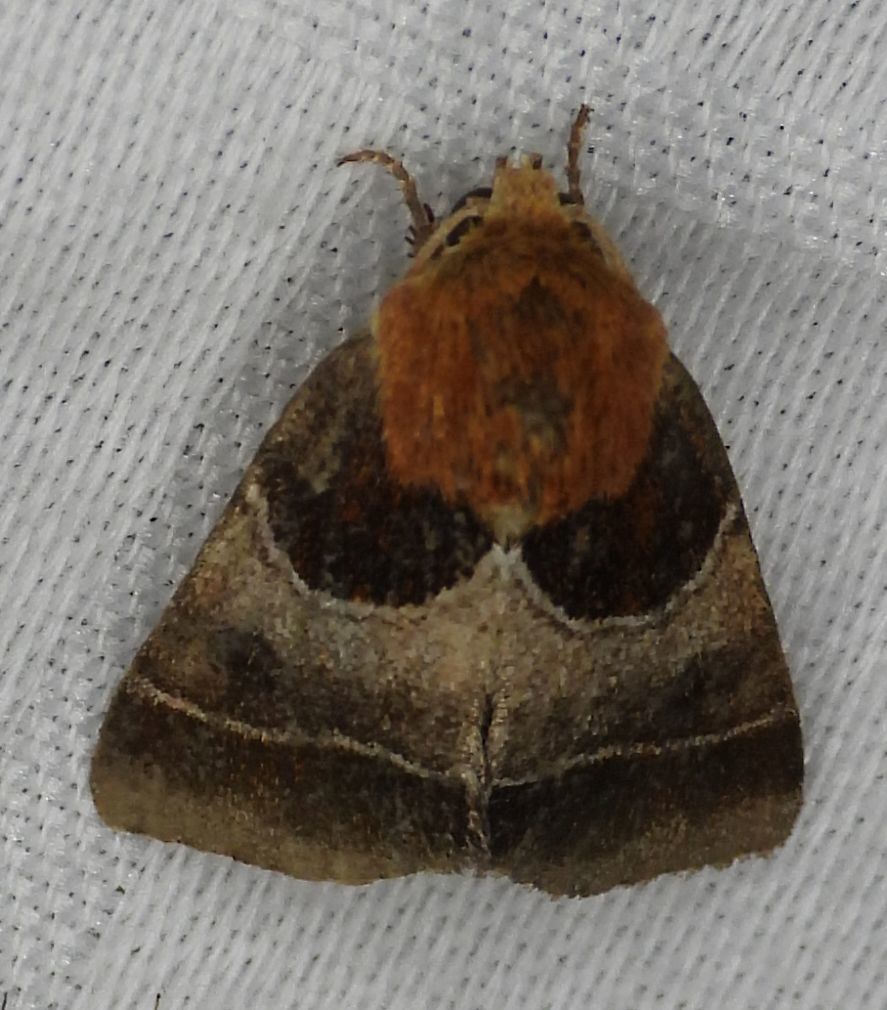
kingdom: Animalia
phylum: Arthropoda
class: Insecta
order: Lepidoptera
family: Noctuidae
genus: Schinia
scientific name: Schinia arcigera
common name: Arcigera flower moth
